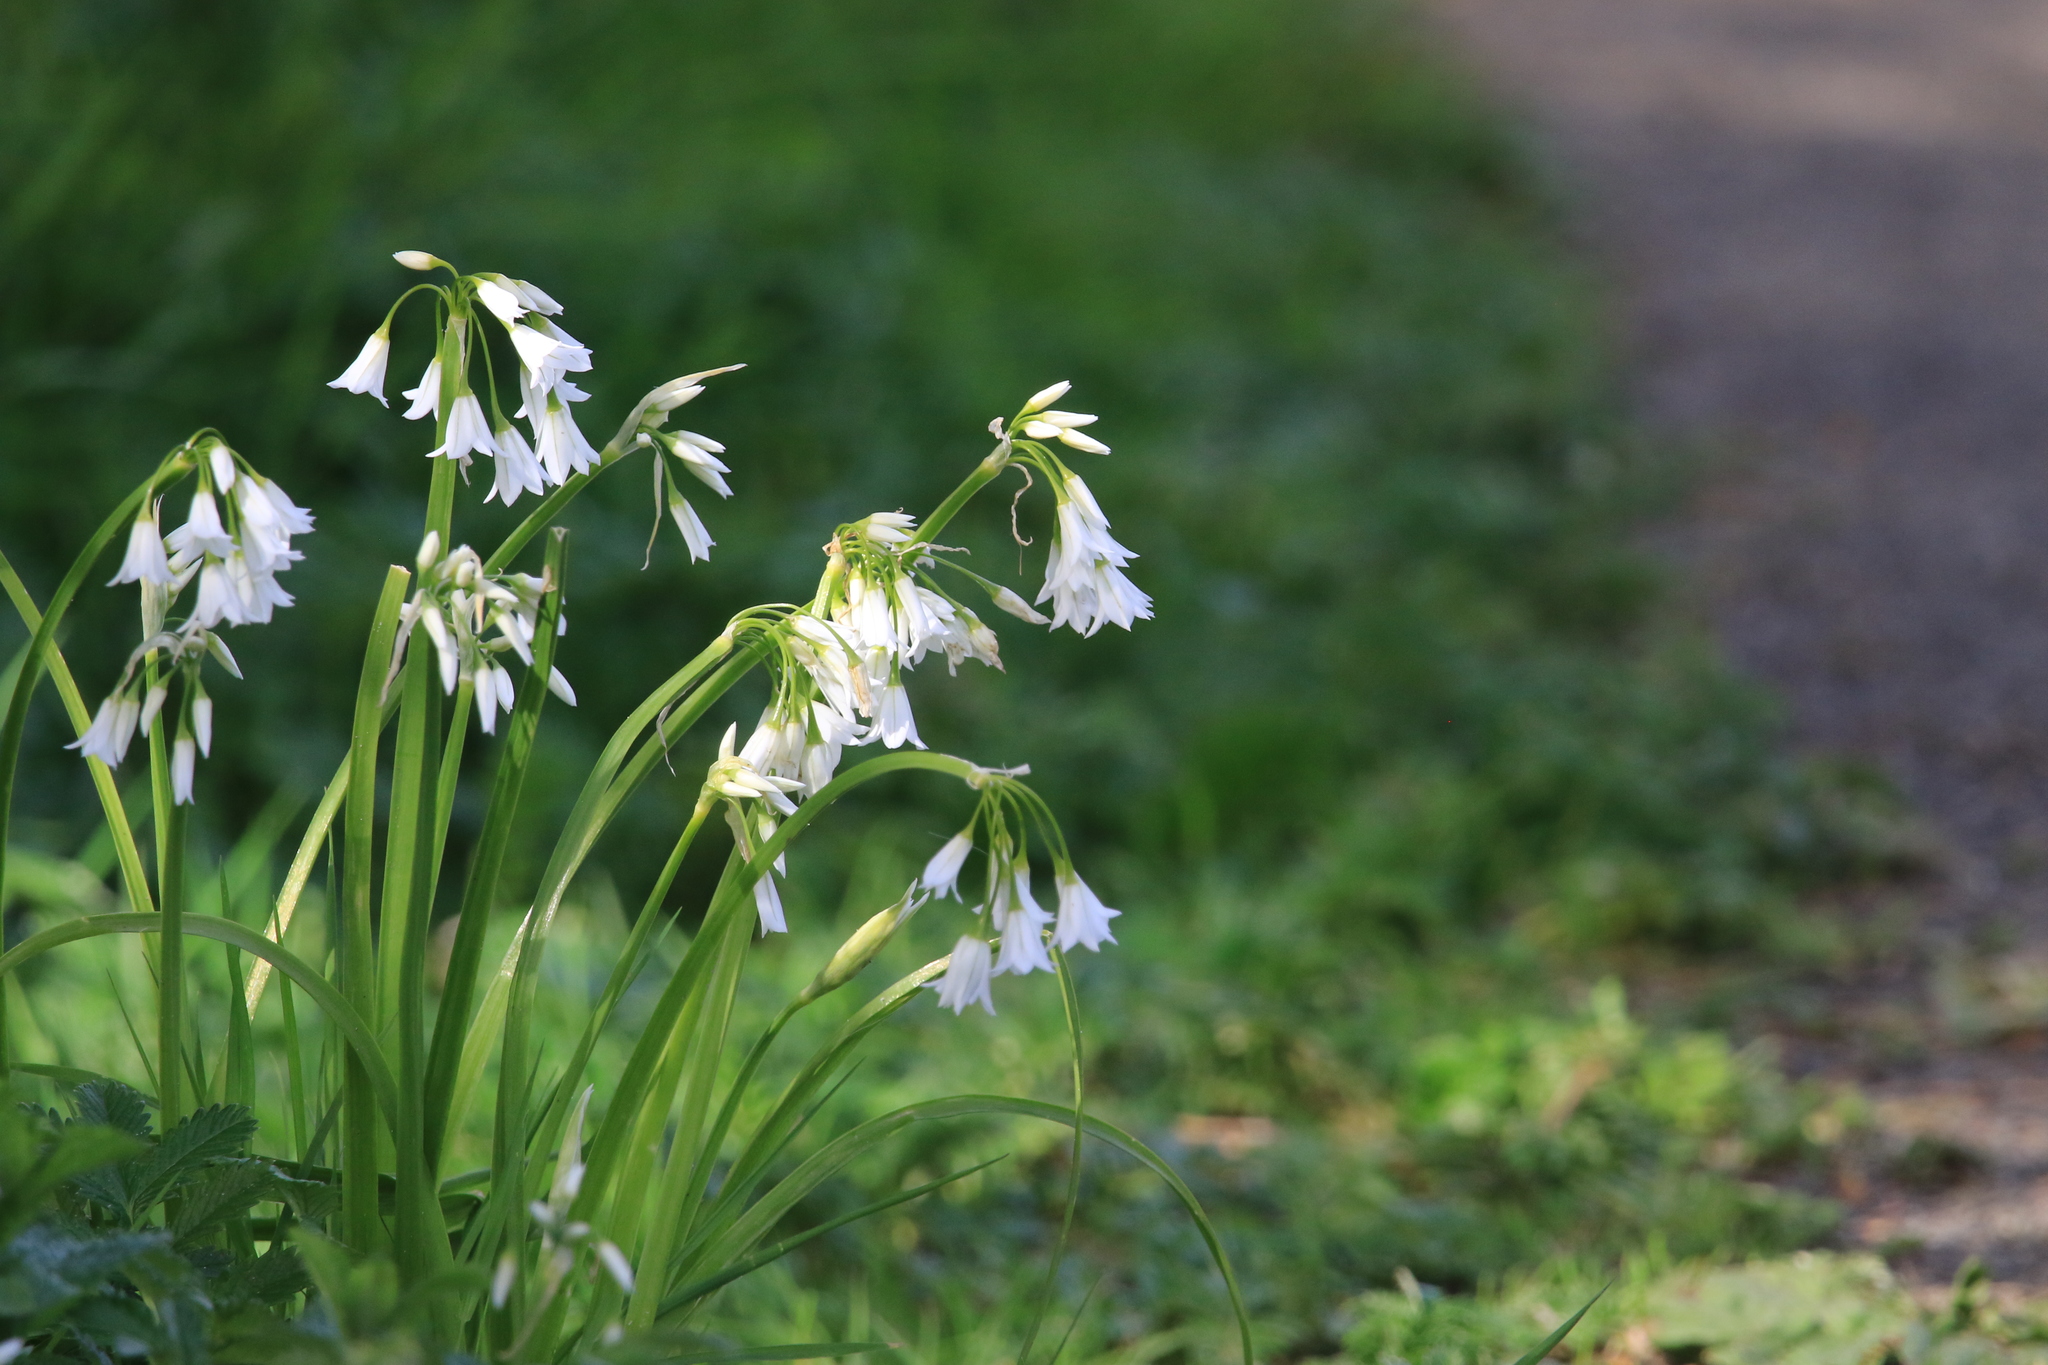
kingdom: Plantae
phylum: Tracheophyta
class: Liliopsida
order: Asparagales
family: Amaryllidaceae
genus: Allium
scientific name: Allium triquetrum
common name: Three-cornered garlic
